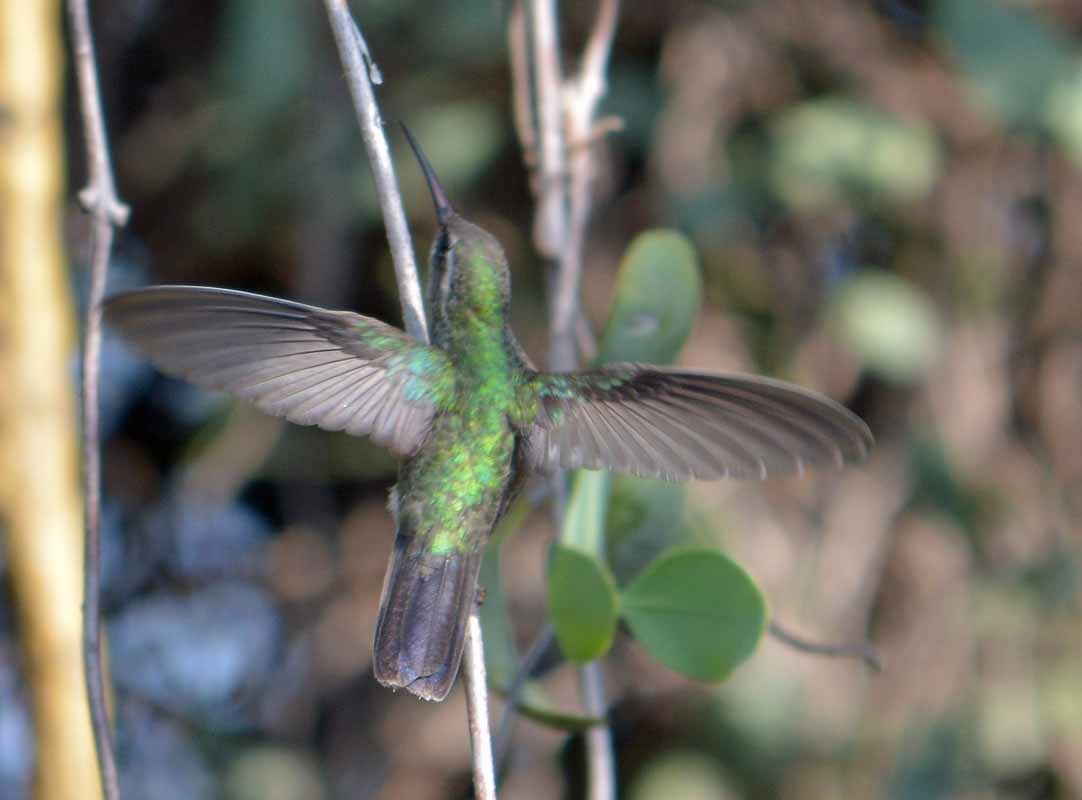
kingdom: Animalia
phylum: Chordata
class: Aves
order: Apodiformes
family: Trochilidae
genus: Cynanthus
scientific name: Cynanthus latirostris
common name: Broad-billed hummingbird
